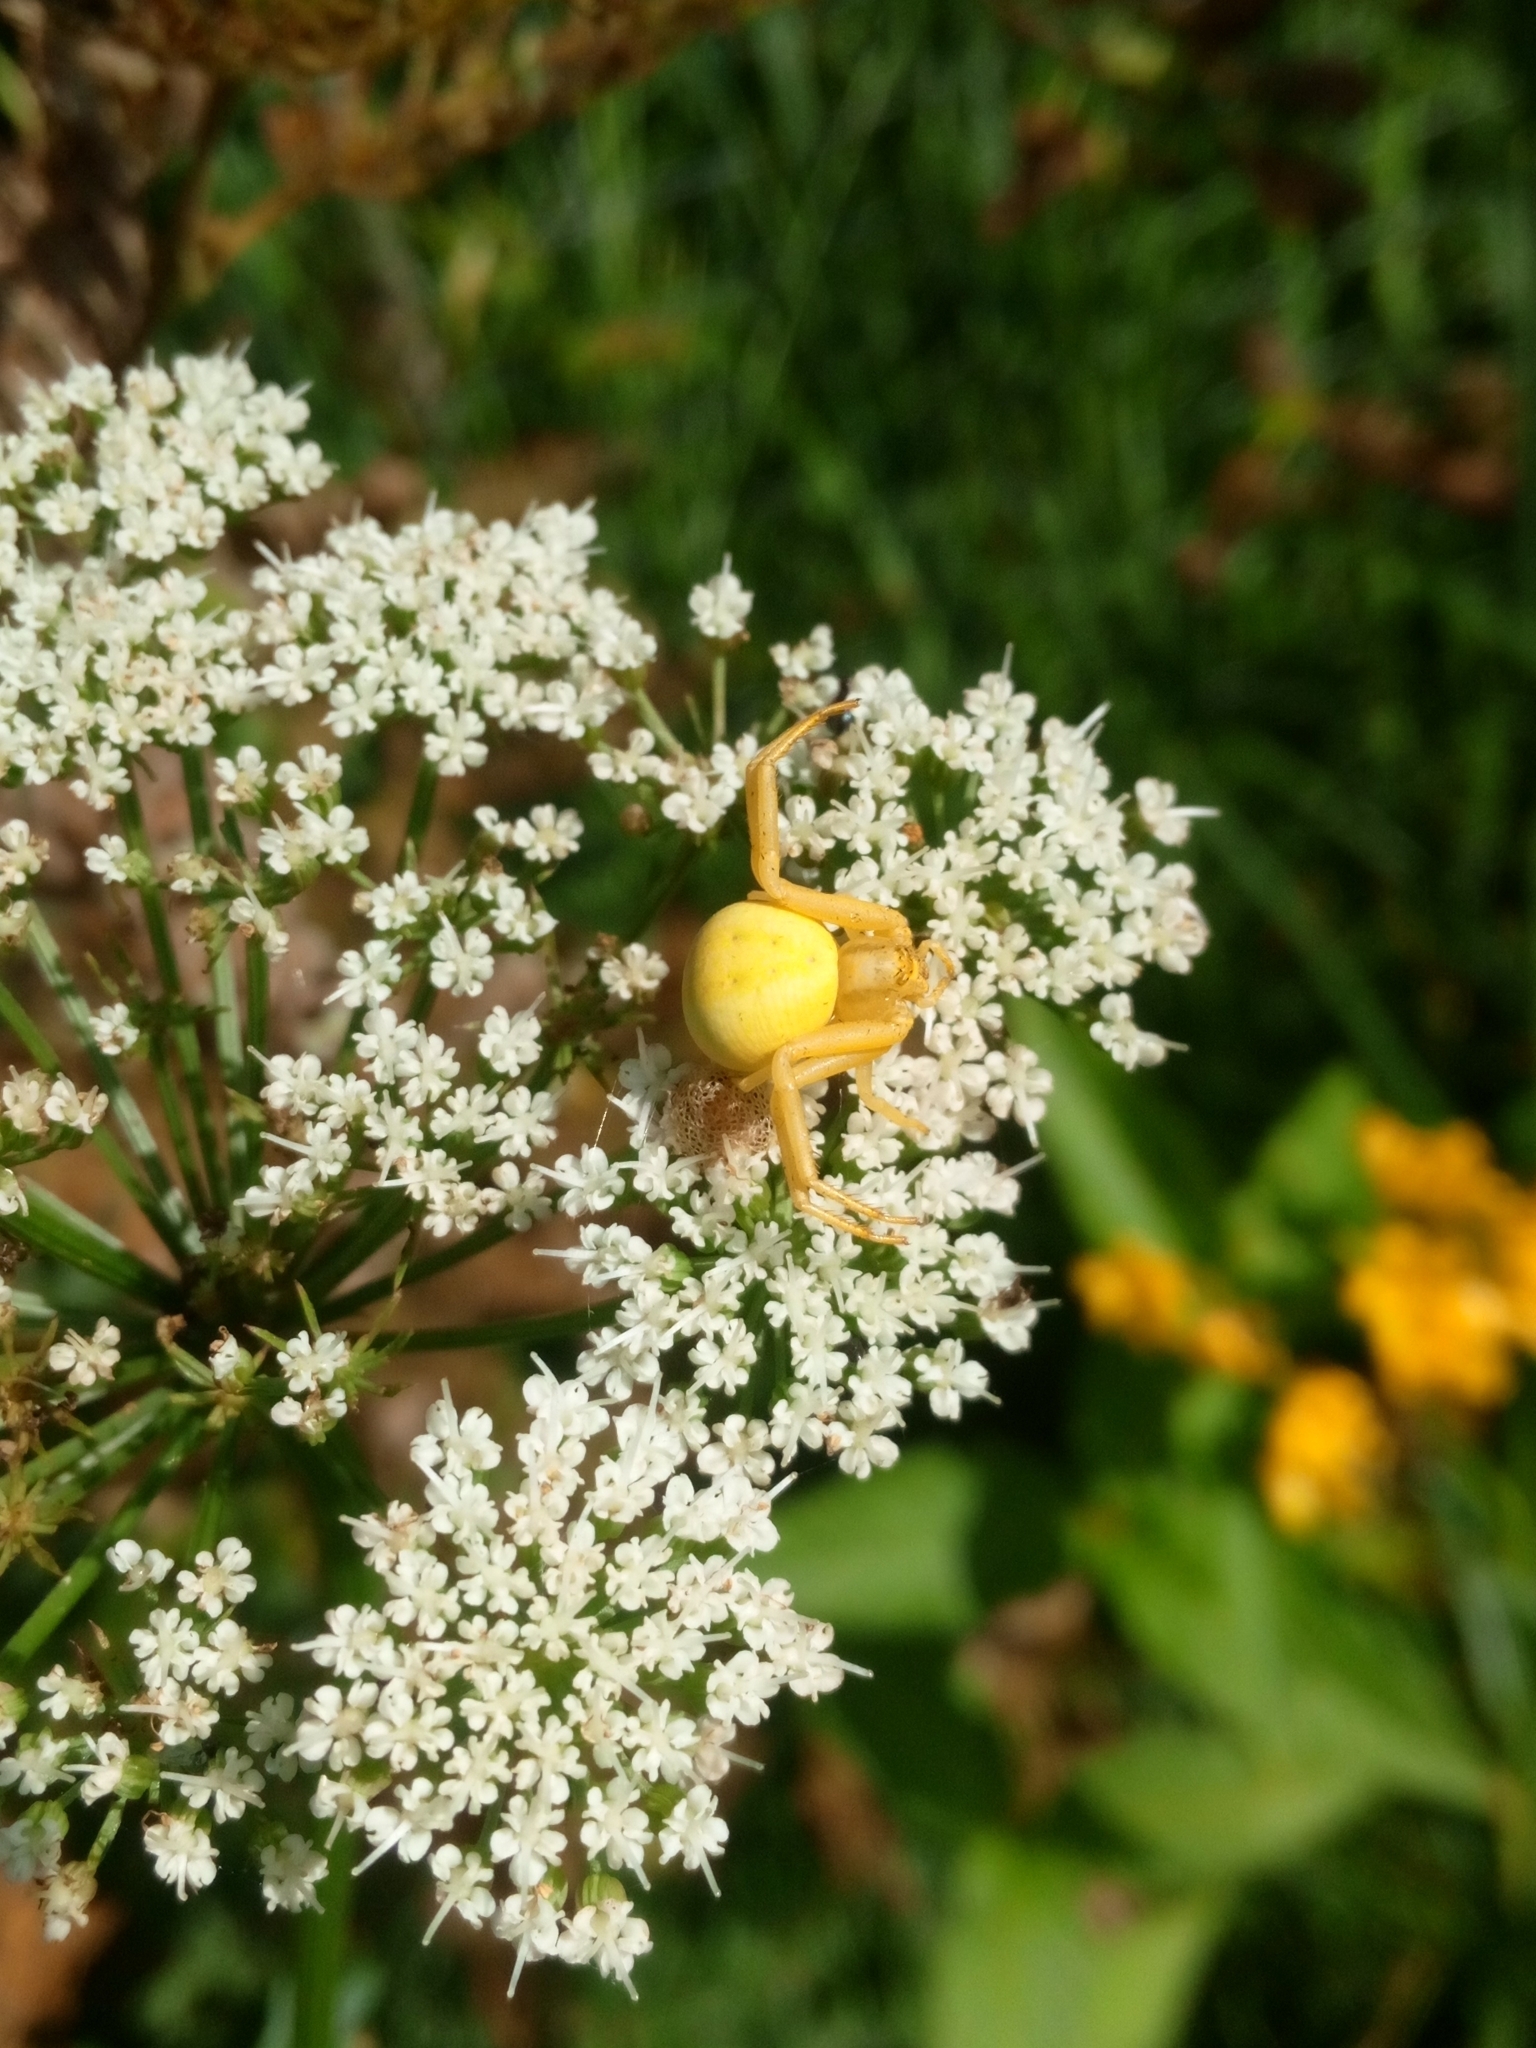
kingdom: Animalia
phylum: Arthropoda
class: Arachnida
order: Araneae
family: Thomisidae
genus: Misumena
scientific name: Misumena vatia
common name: Goldenrod crab spider
